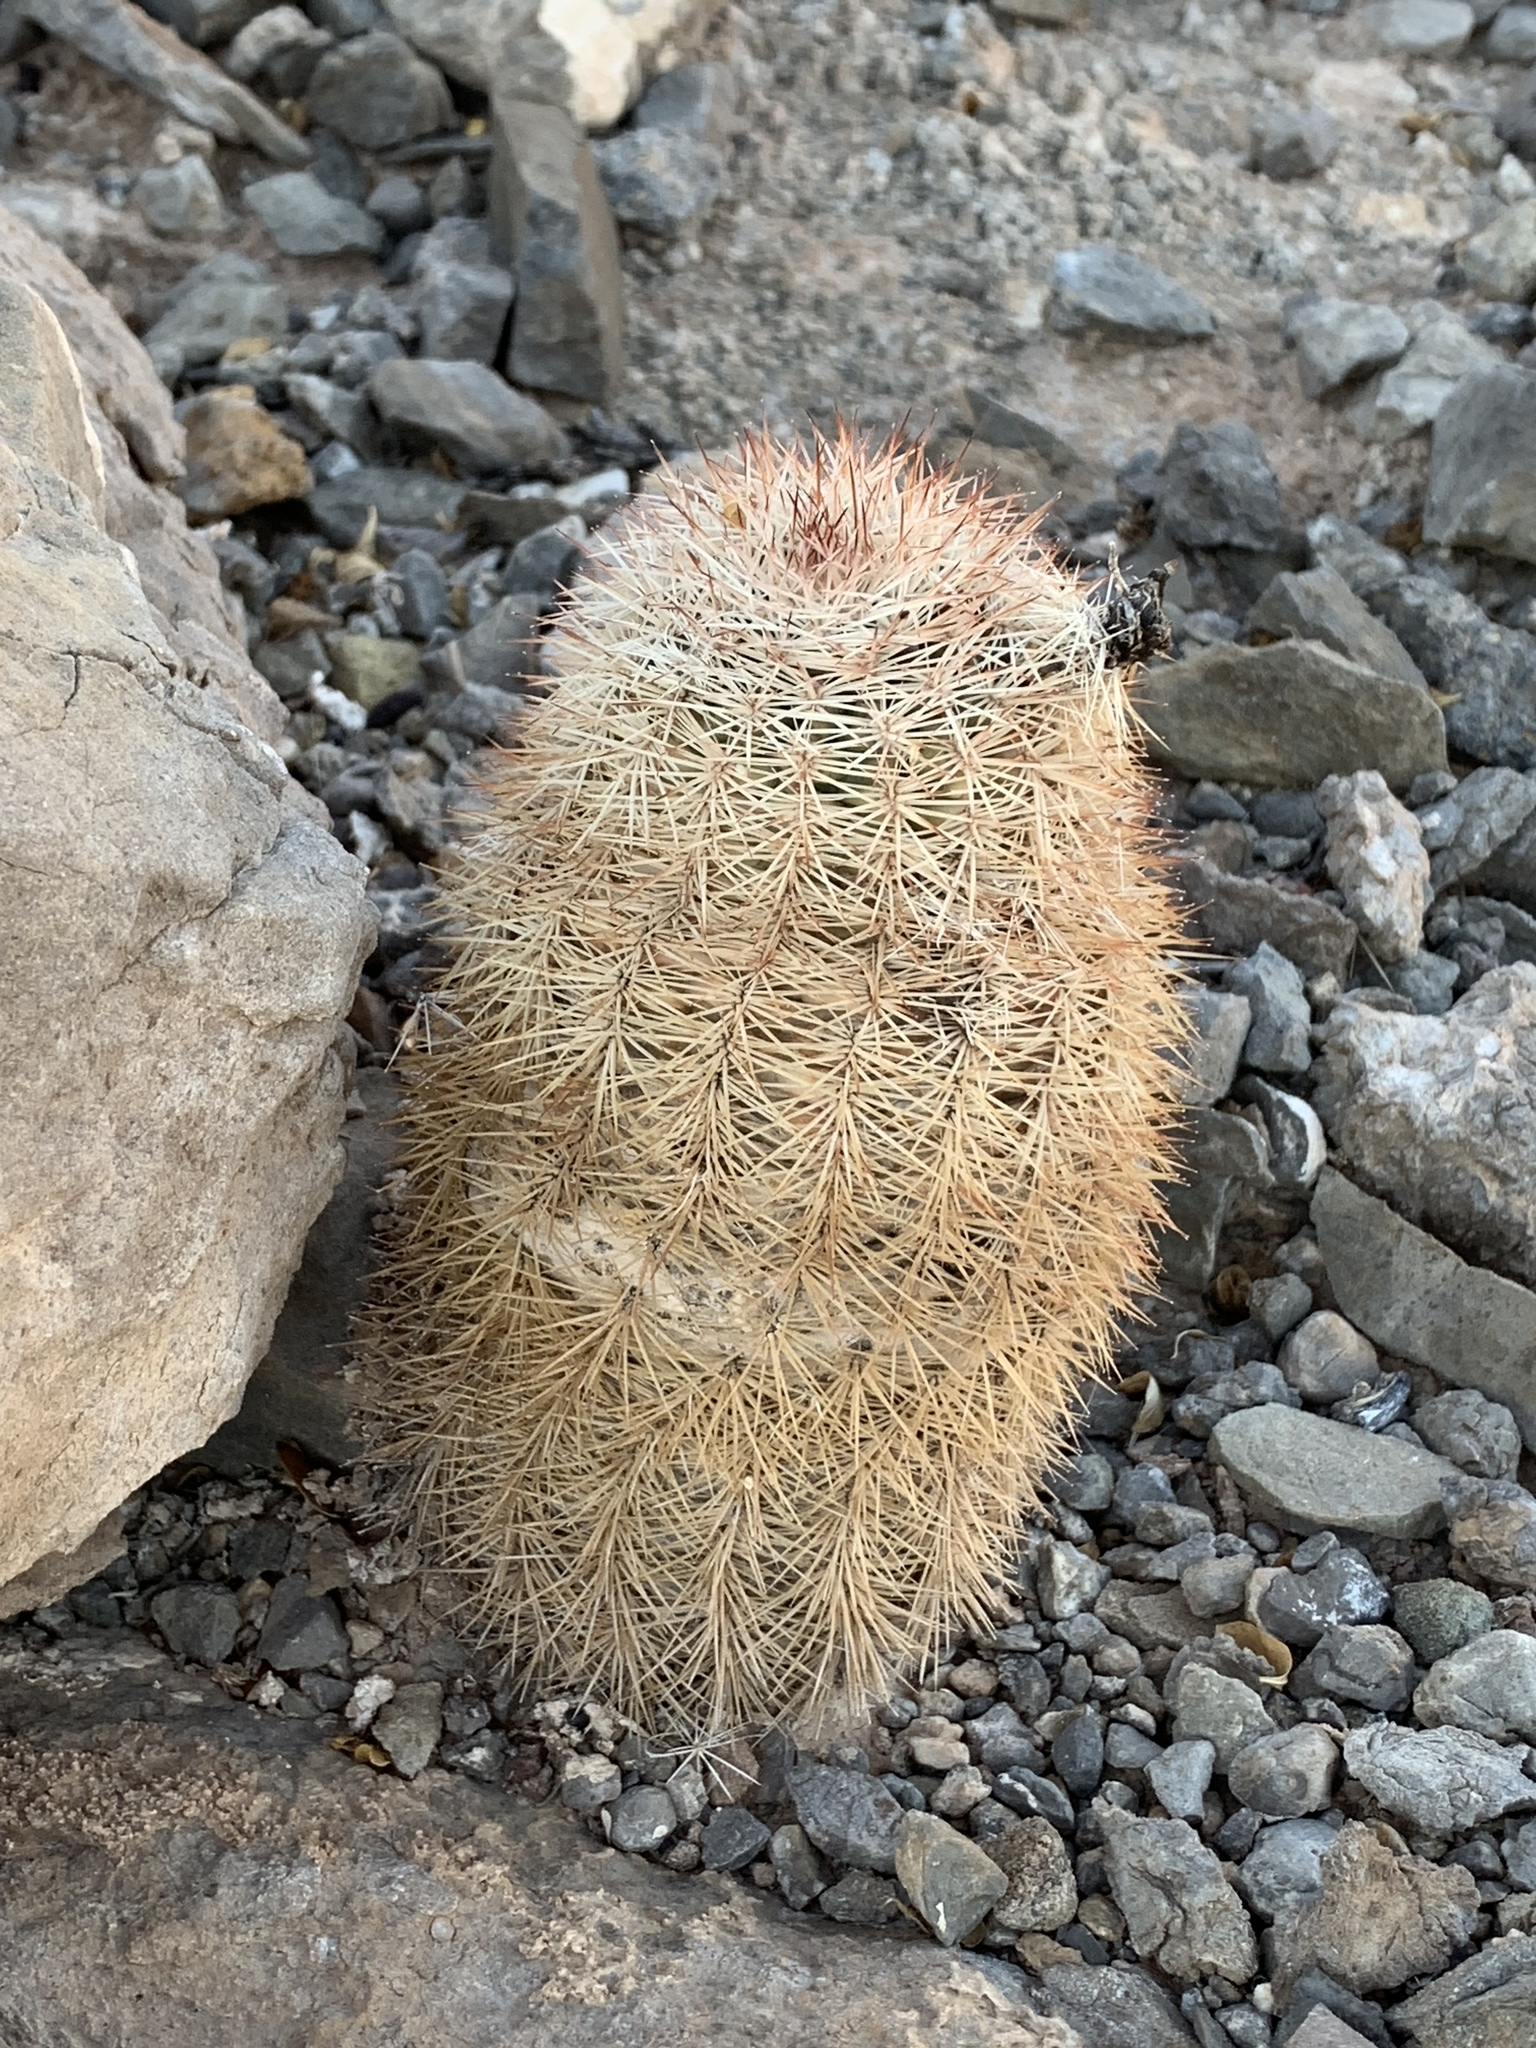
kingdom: Plantae
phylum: Tracheophyta
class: Magnoliopsida
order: Caryophyllales
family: Cactaceae
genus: Echinocereus
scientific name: Echinocereus dasyacanthus
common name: Spiny hedgehog cactus
